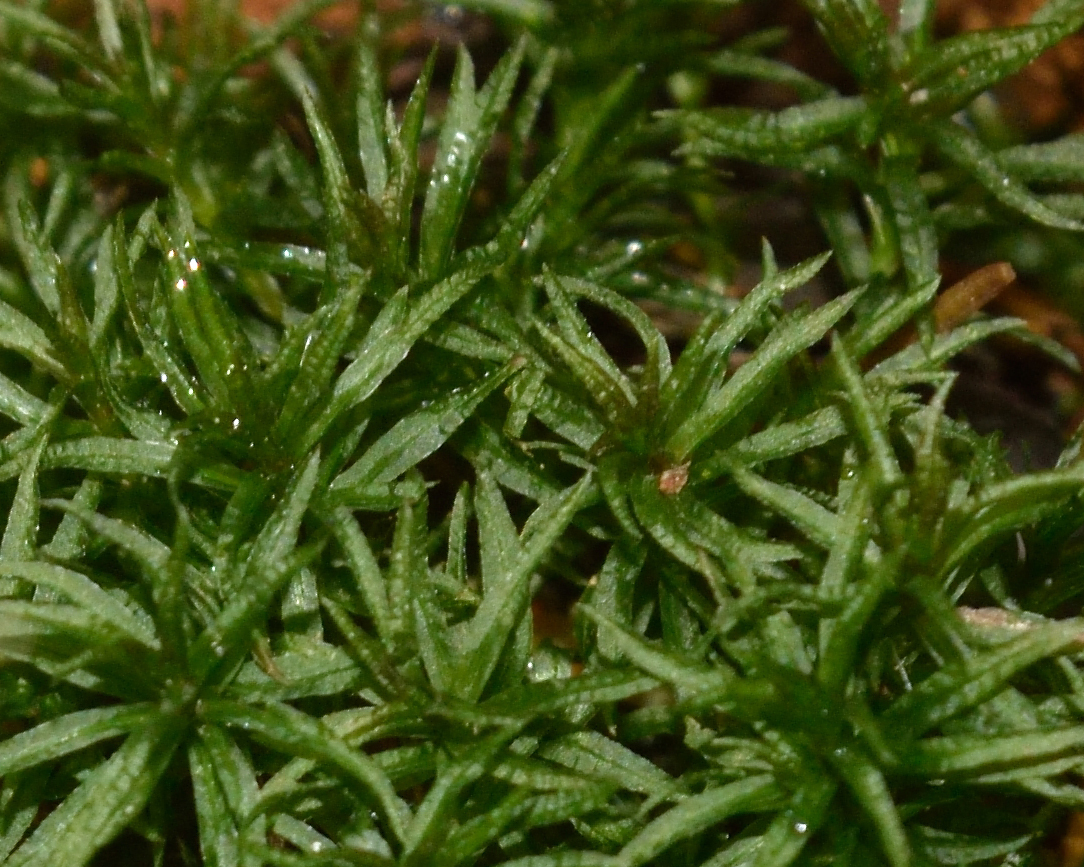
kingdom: Plantae
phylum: Bryophyta
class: Polytrichopsida
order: Polytrichales
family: Polytrichaceae
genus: Atrichum
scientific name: Atrichum undulatum
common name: Common smoothcap
